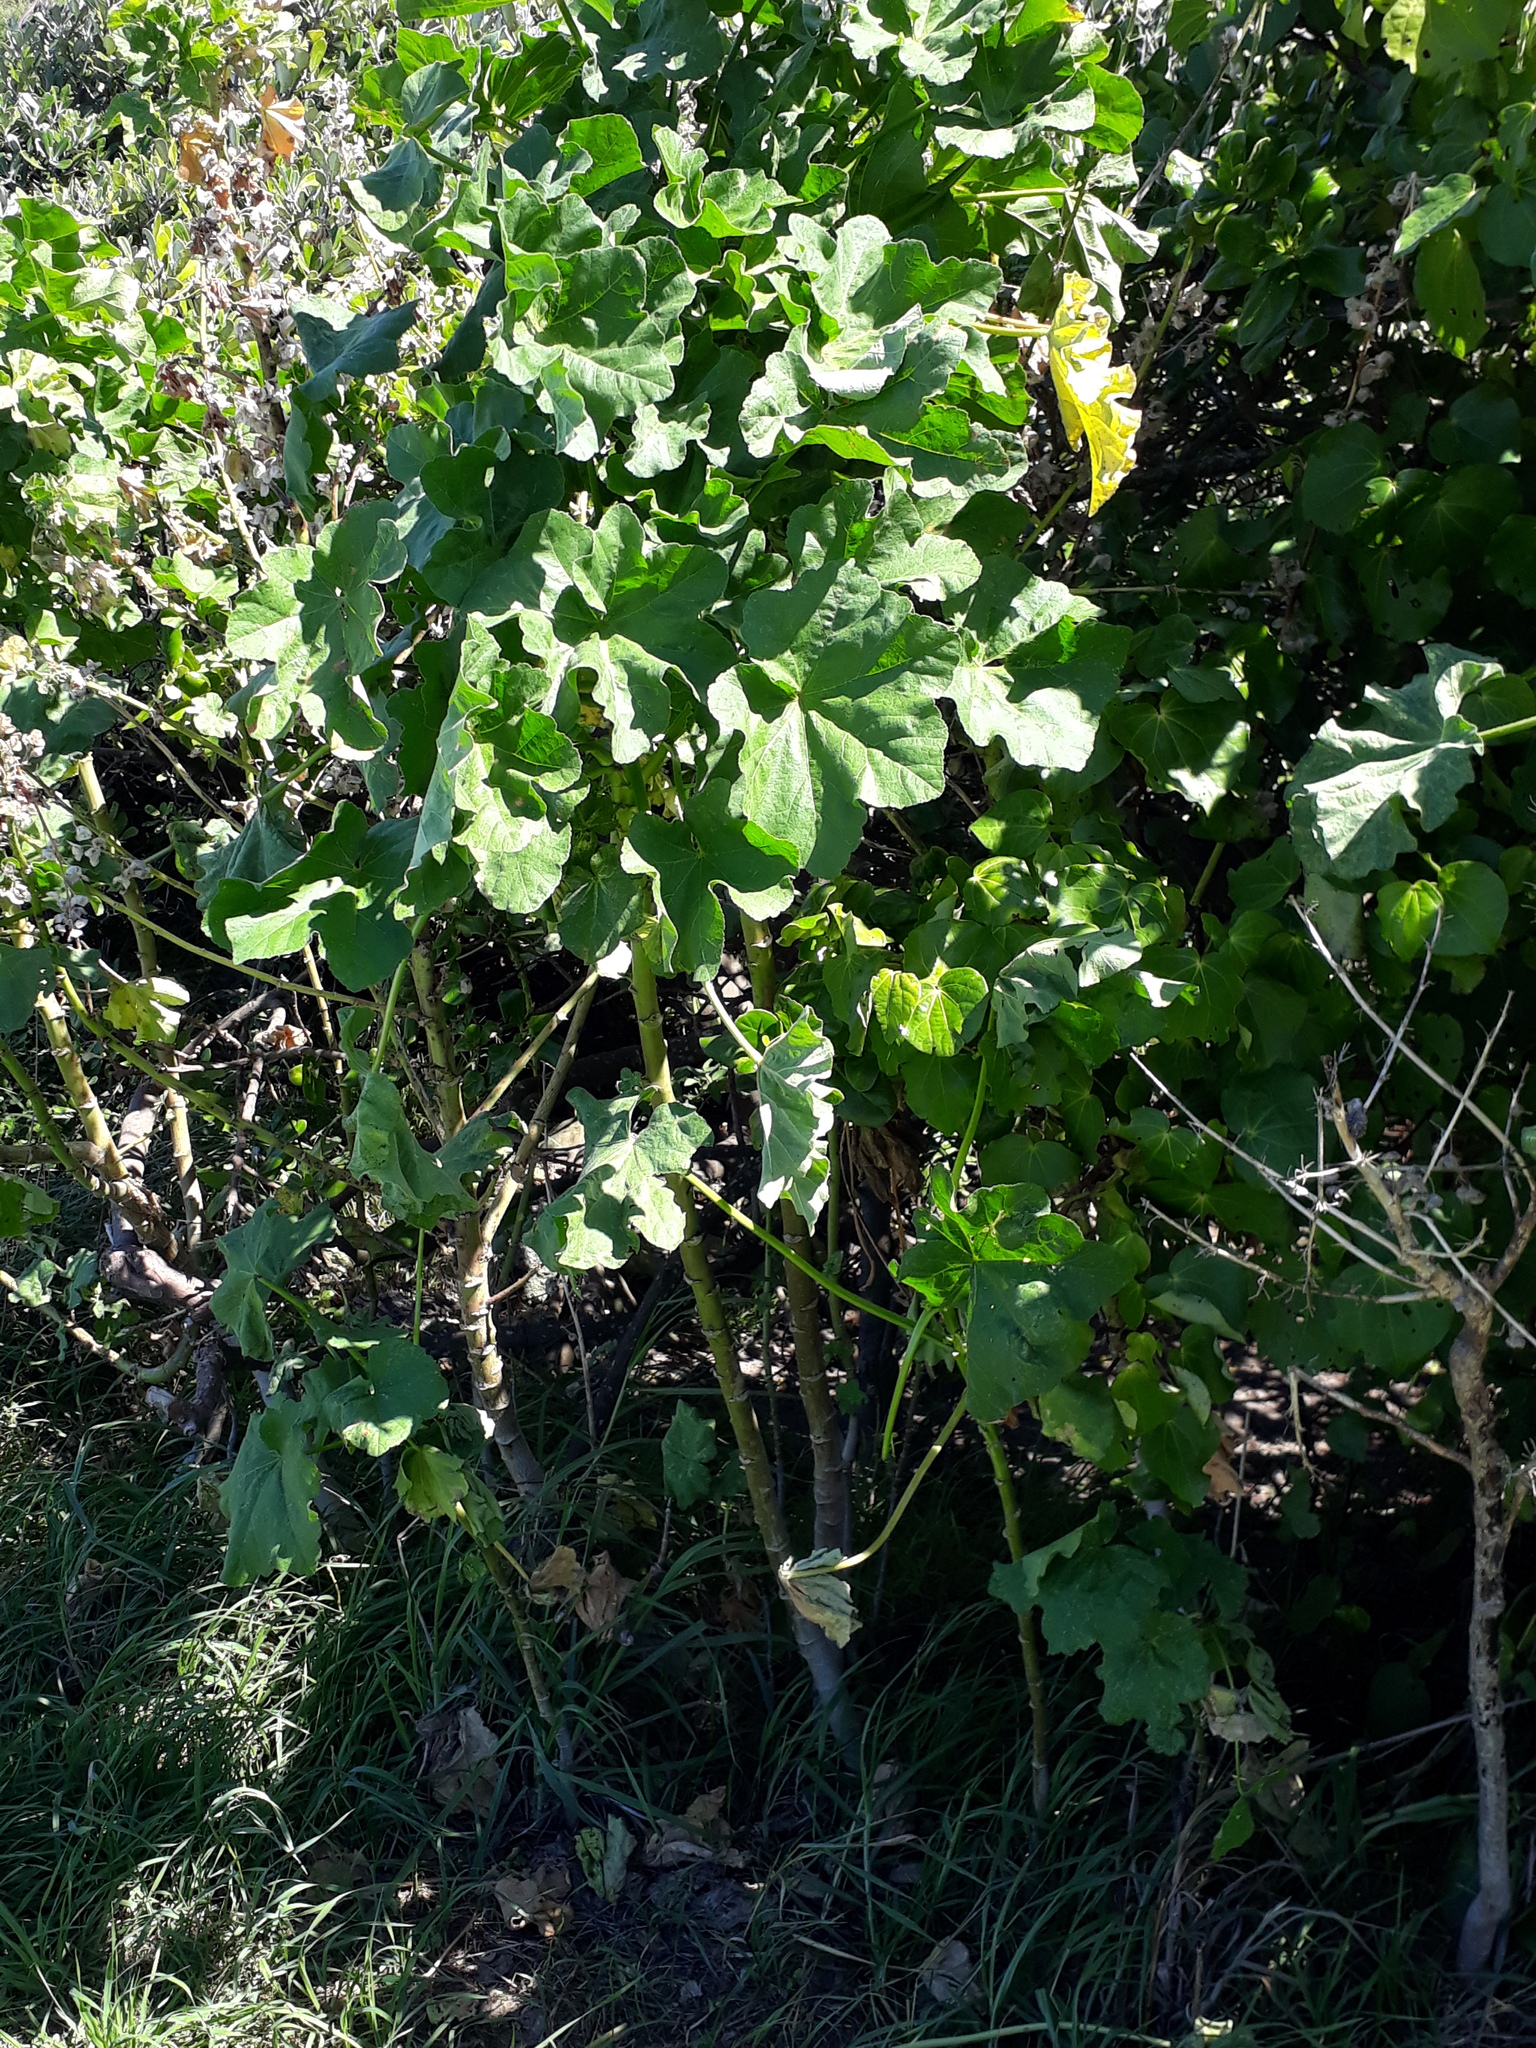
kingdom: Plantae
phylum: Tracheophyta
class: Magnoliopsida
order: Malvales
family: Malvaceae
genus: Malva
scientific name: Malva arborea
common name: Tree mallow
